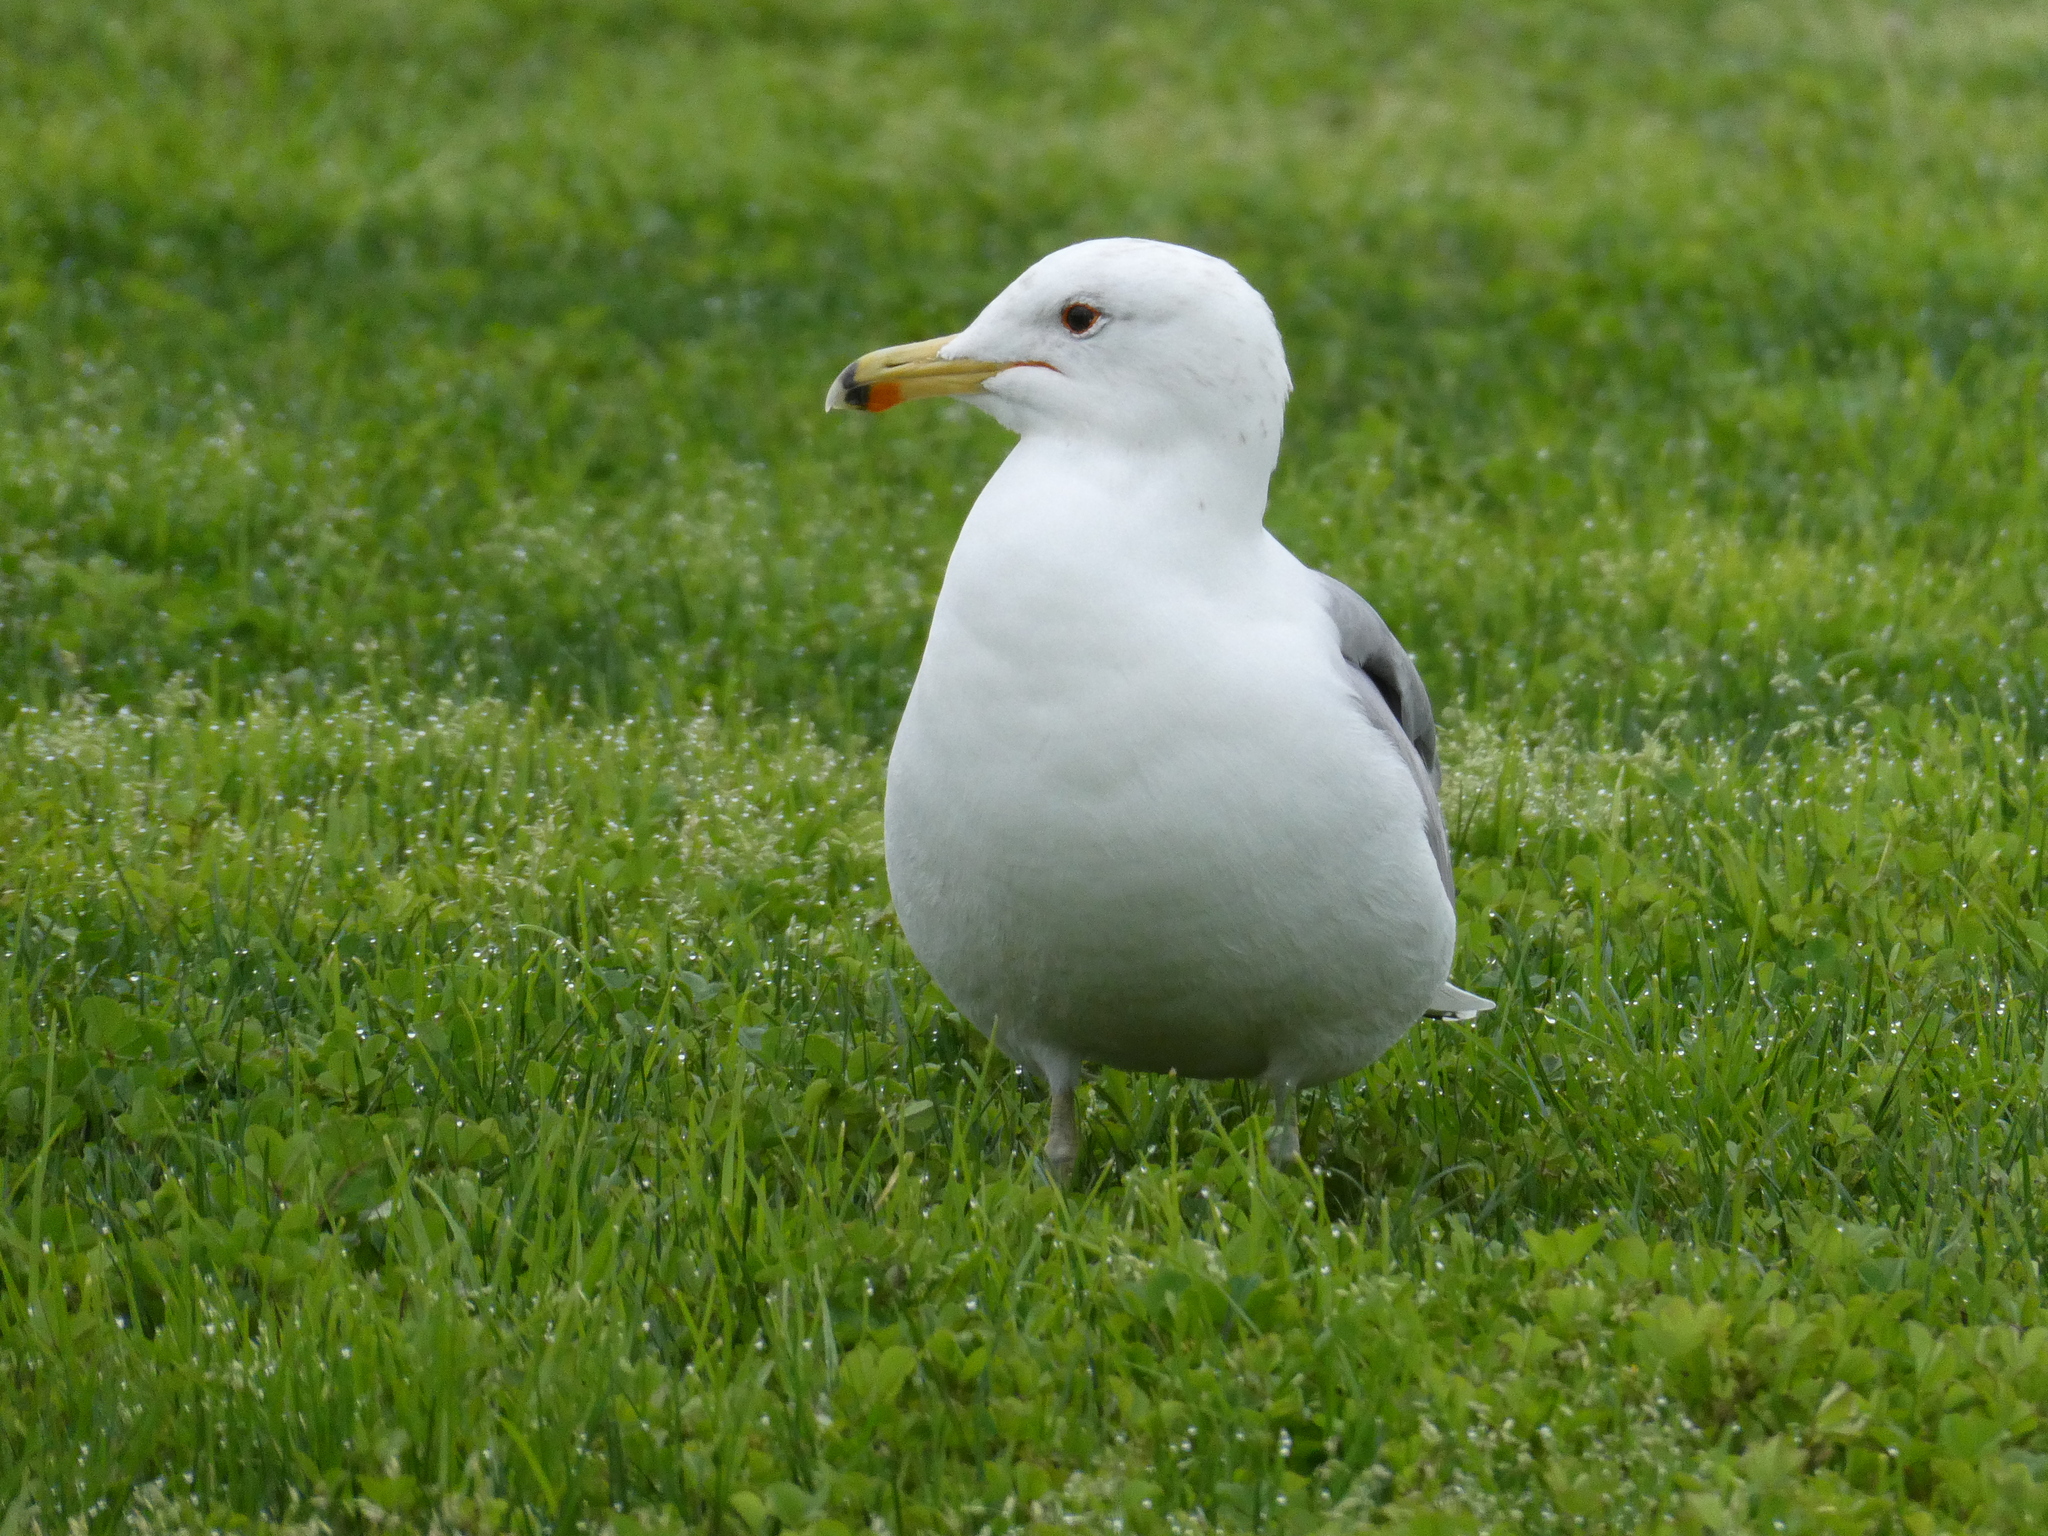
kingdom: Animalia
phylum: Chordata
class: Aves
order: Charadriiformes
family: Laridae
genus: Larus
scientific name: Larus californicus
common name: California gull
